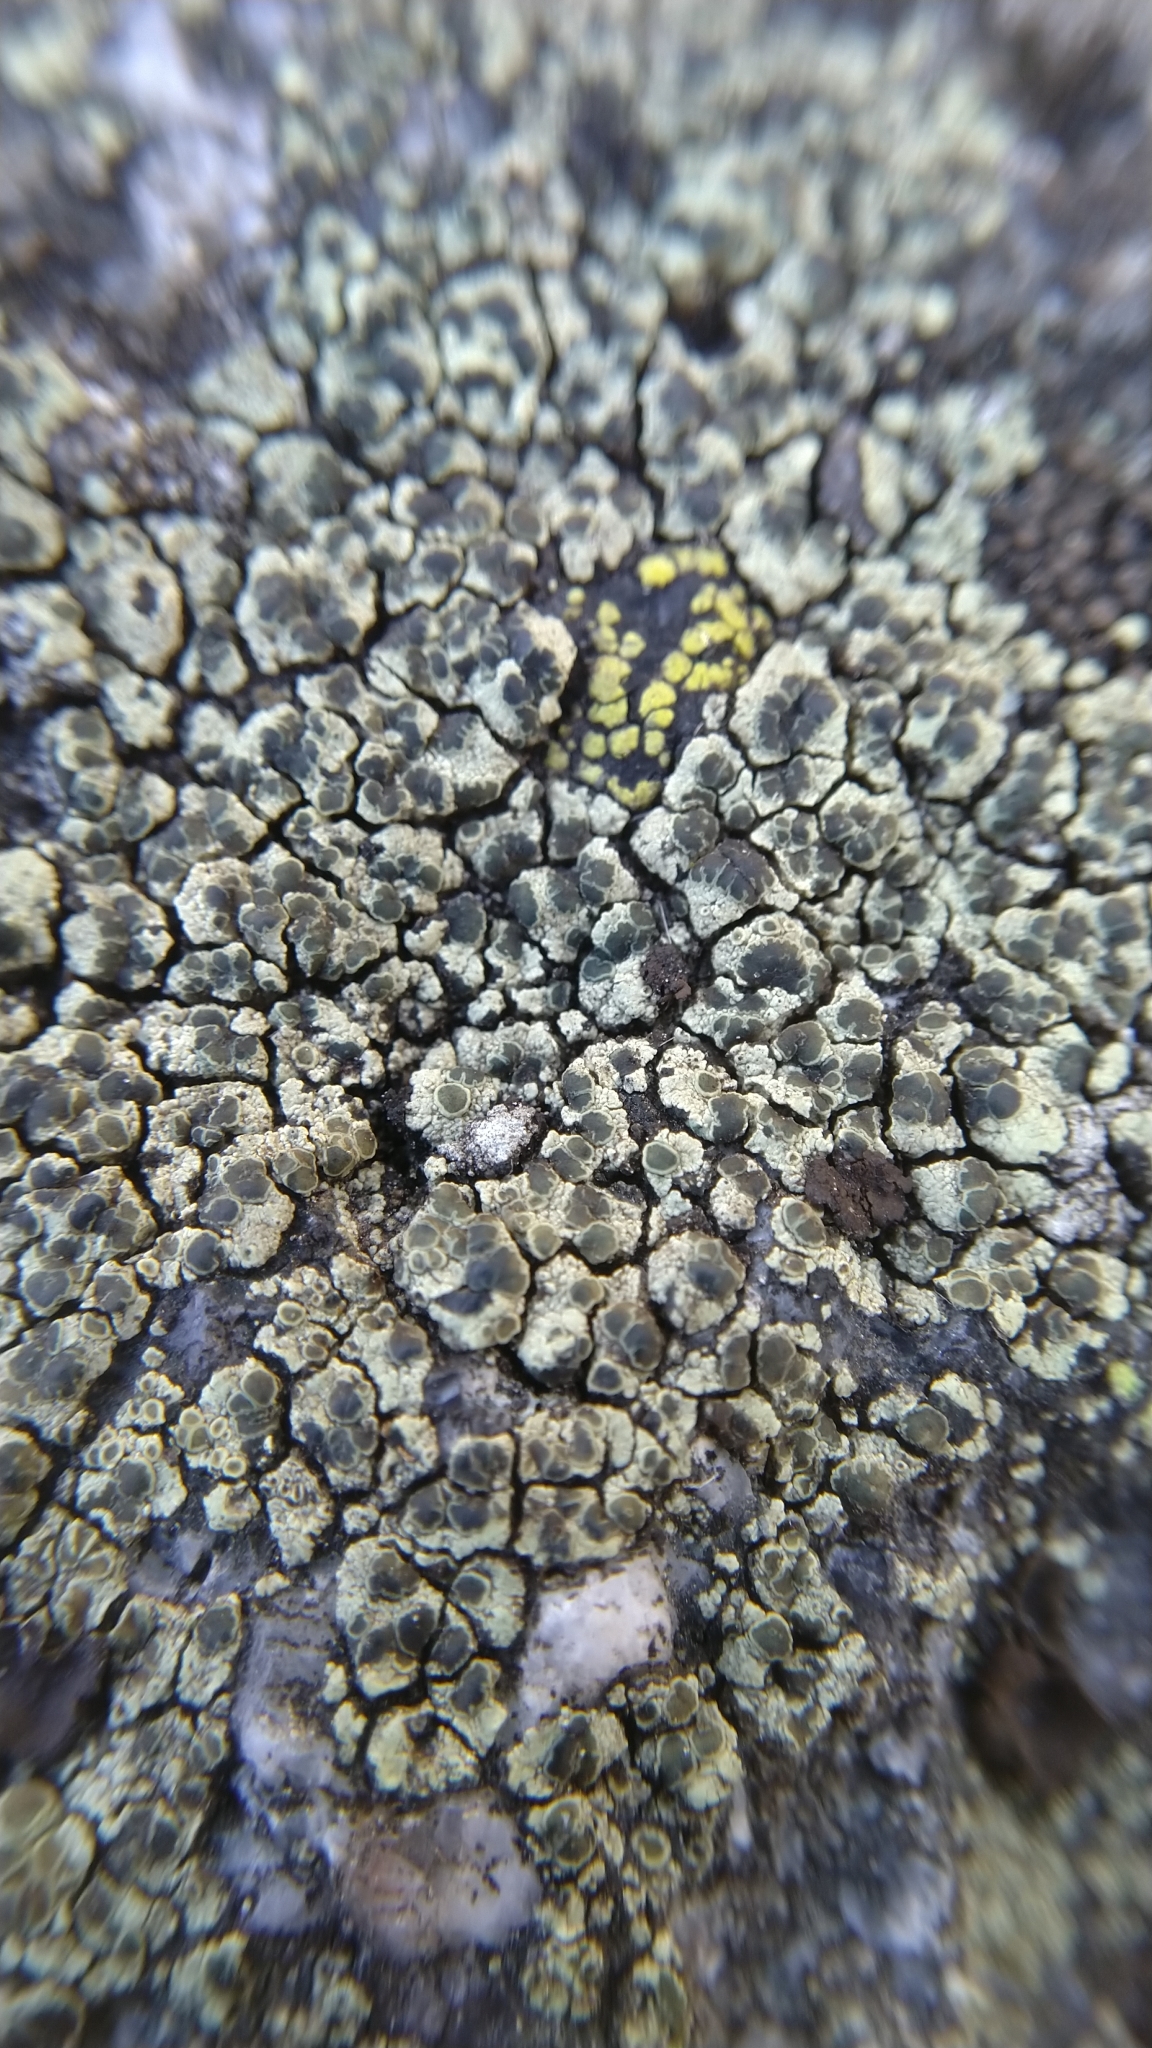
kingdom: Fungi
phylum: Ascomycota
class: Lecanoromycetes
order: Lecanorales
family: Lecanoraceae
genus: Lecanora
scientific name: Lecanora intricata
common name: Intricate rim-lichen
